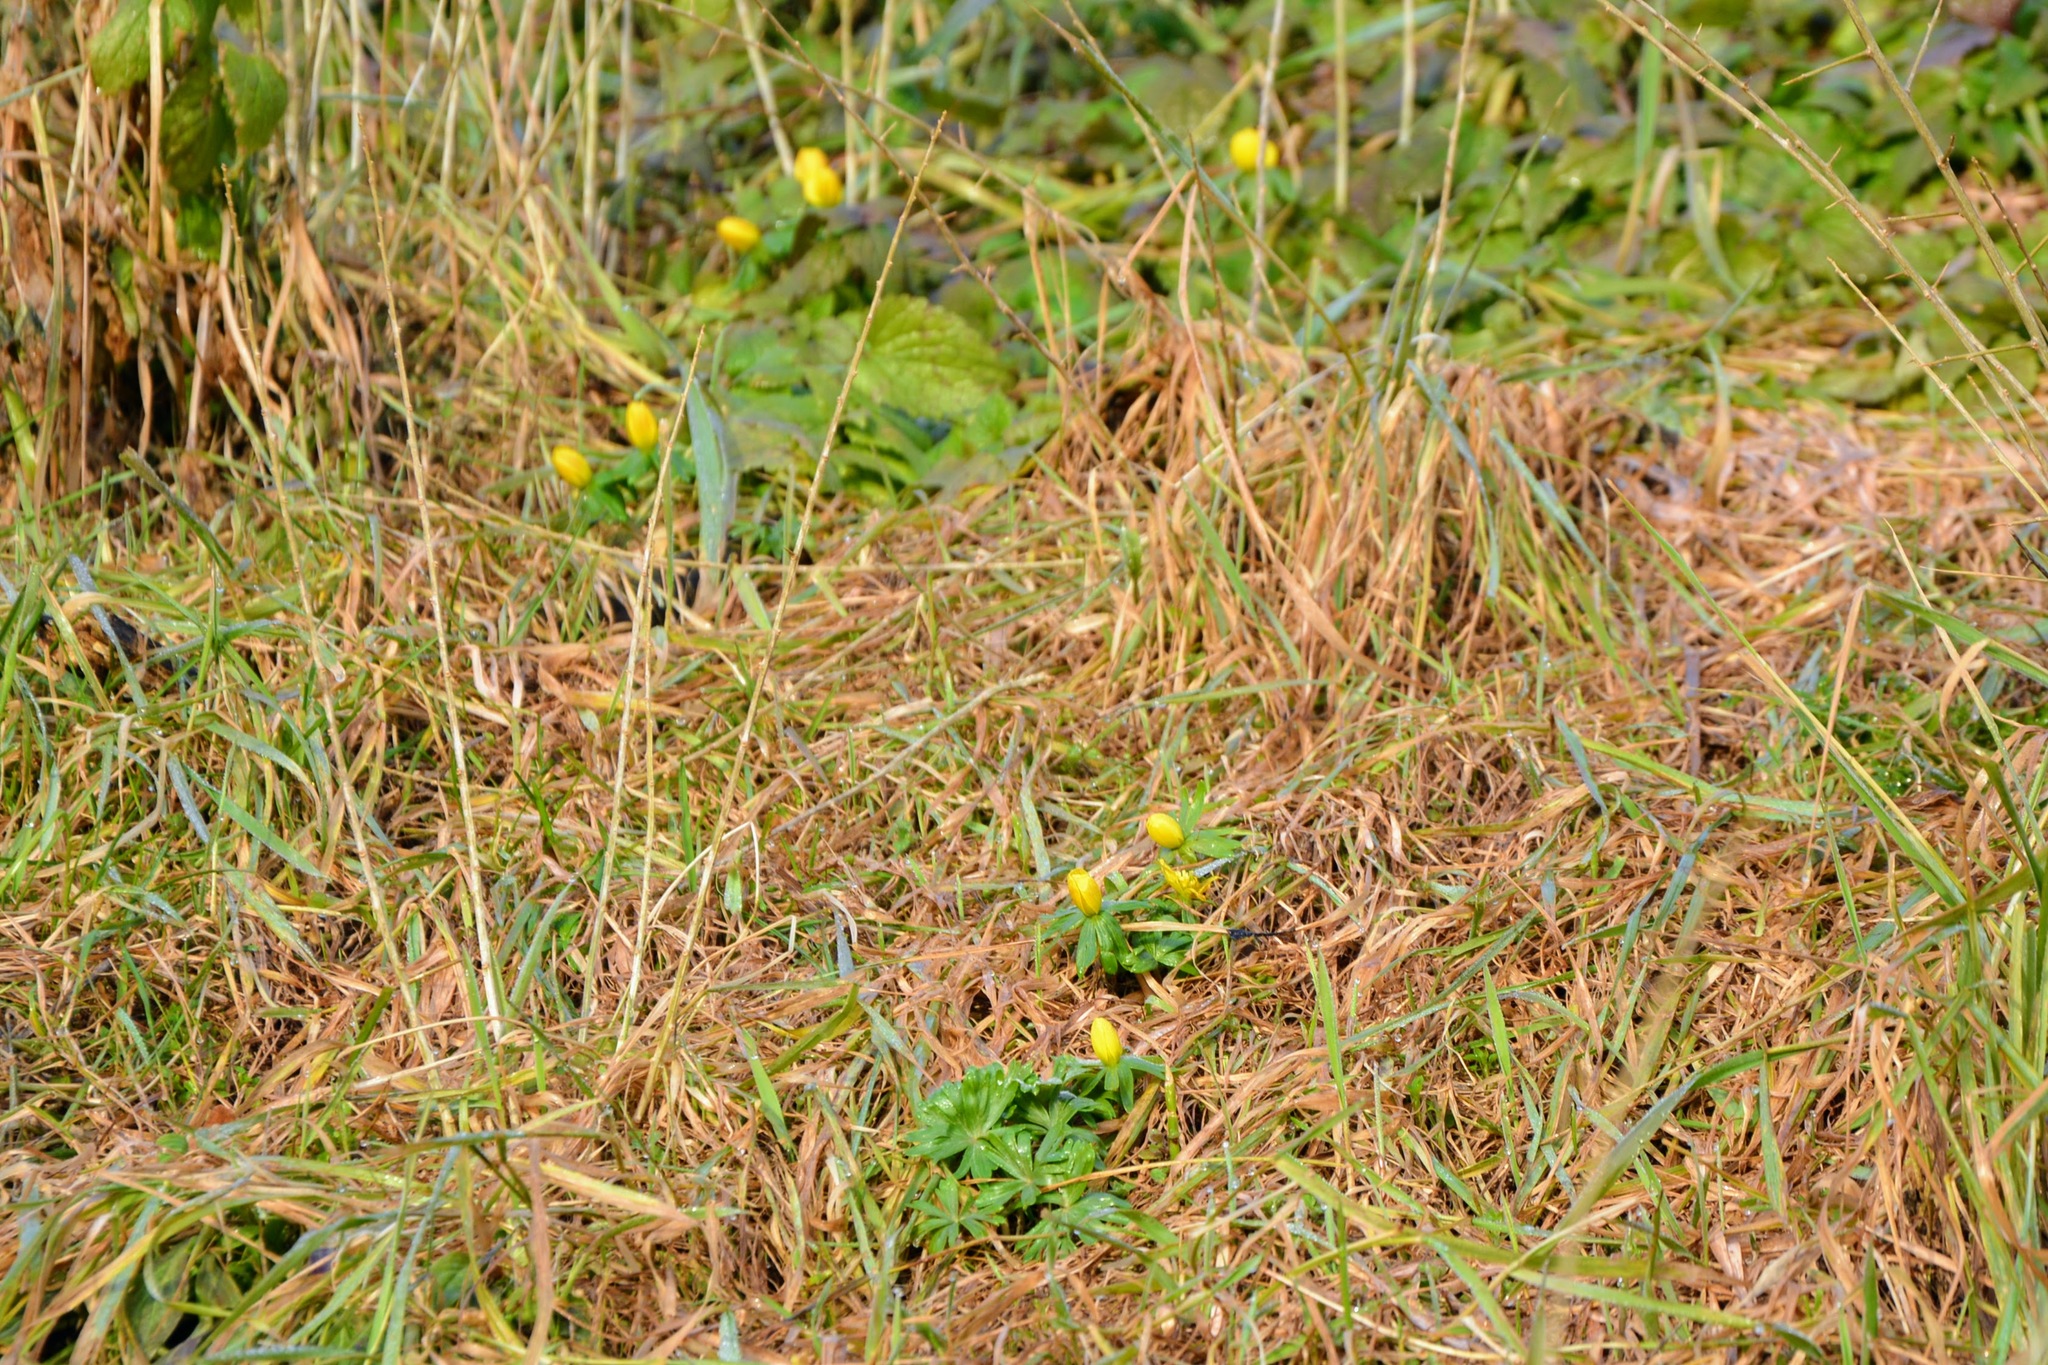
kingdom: Plantae
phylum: Tracheophyta
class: Magnoliopsida
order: Ranunculales
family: Ranunculaceae
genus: Eranthis
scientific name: Eranthis hyemalis
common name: Winter aconite
